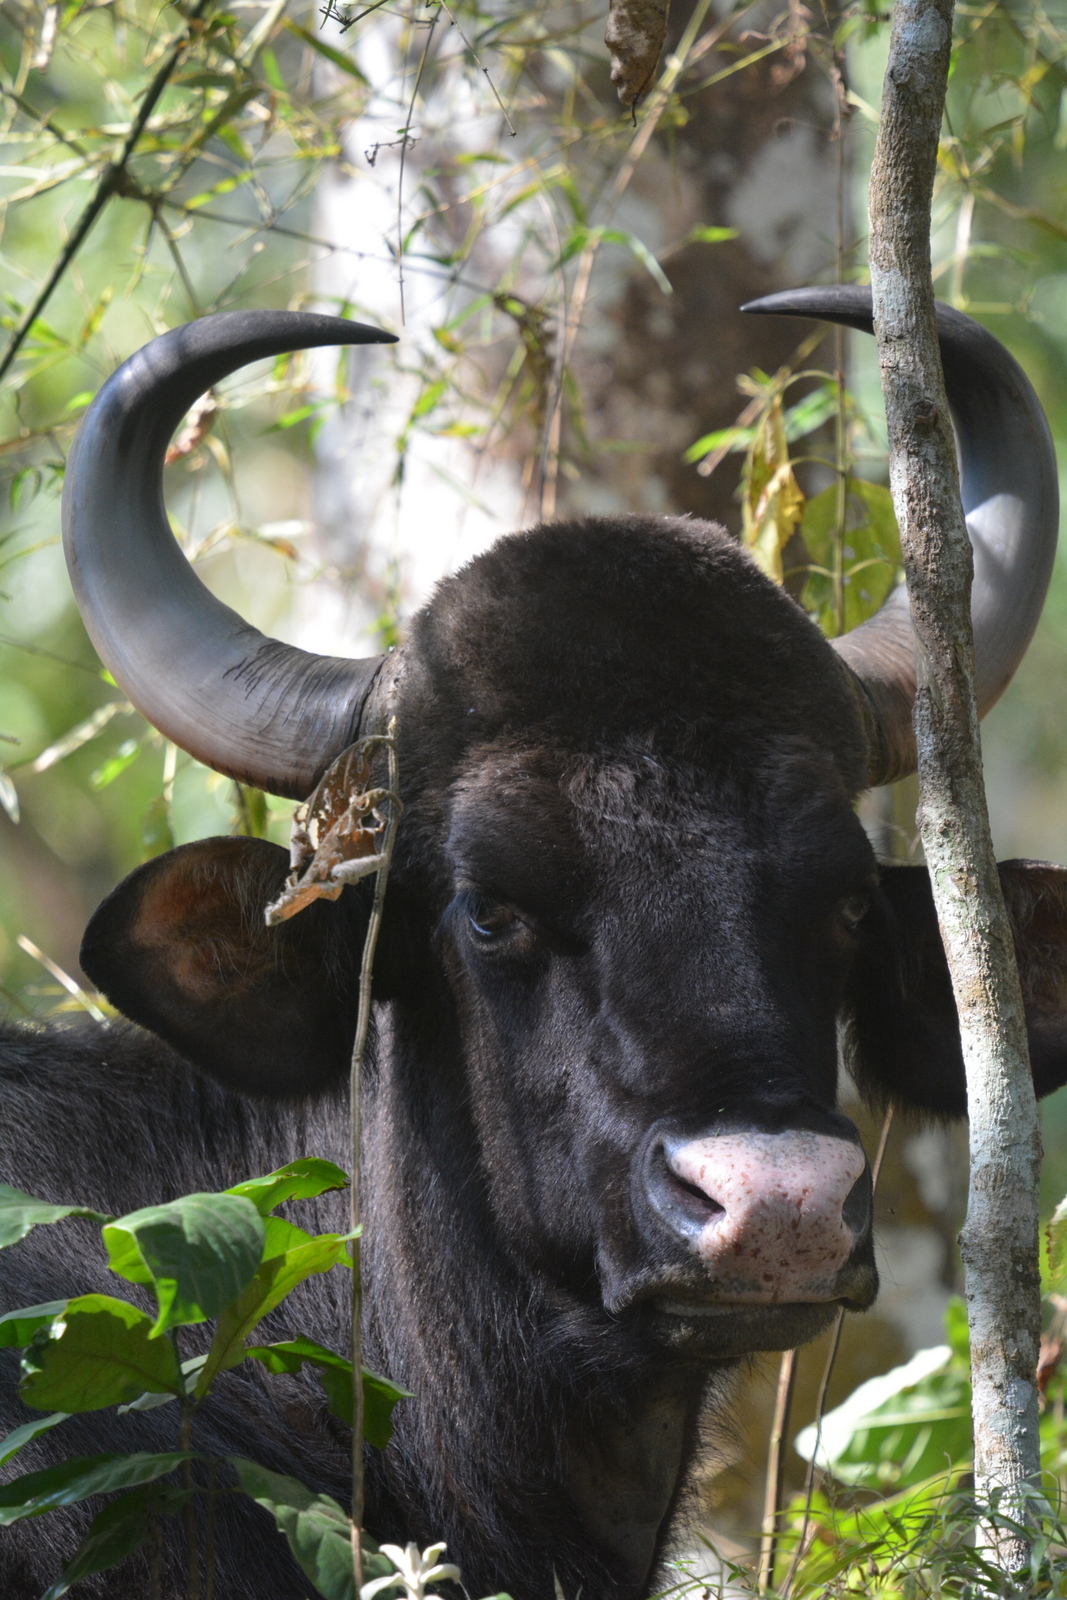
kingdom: Animalia
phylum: Chordata
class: Mammalia
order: Artiodactyla
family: Bovidae
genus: Bos
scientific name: Bos frontalis
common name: Gaur
